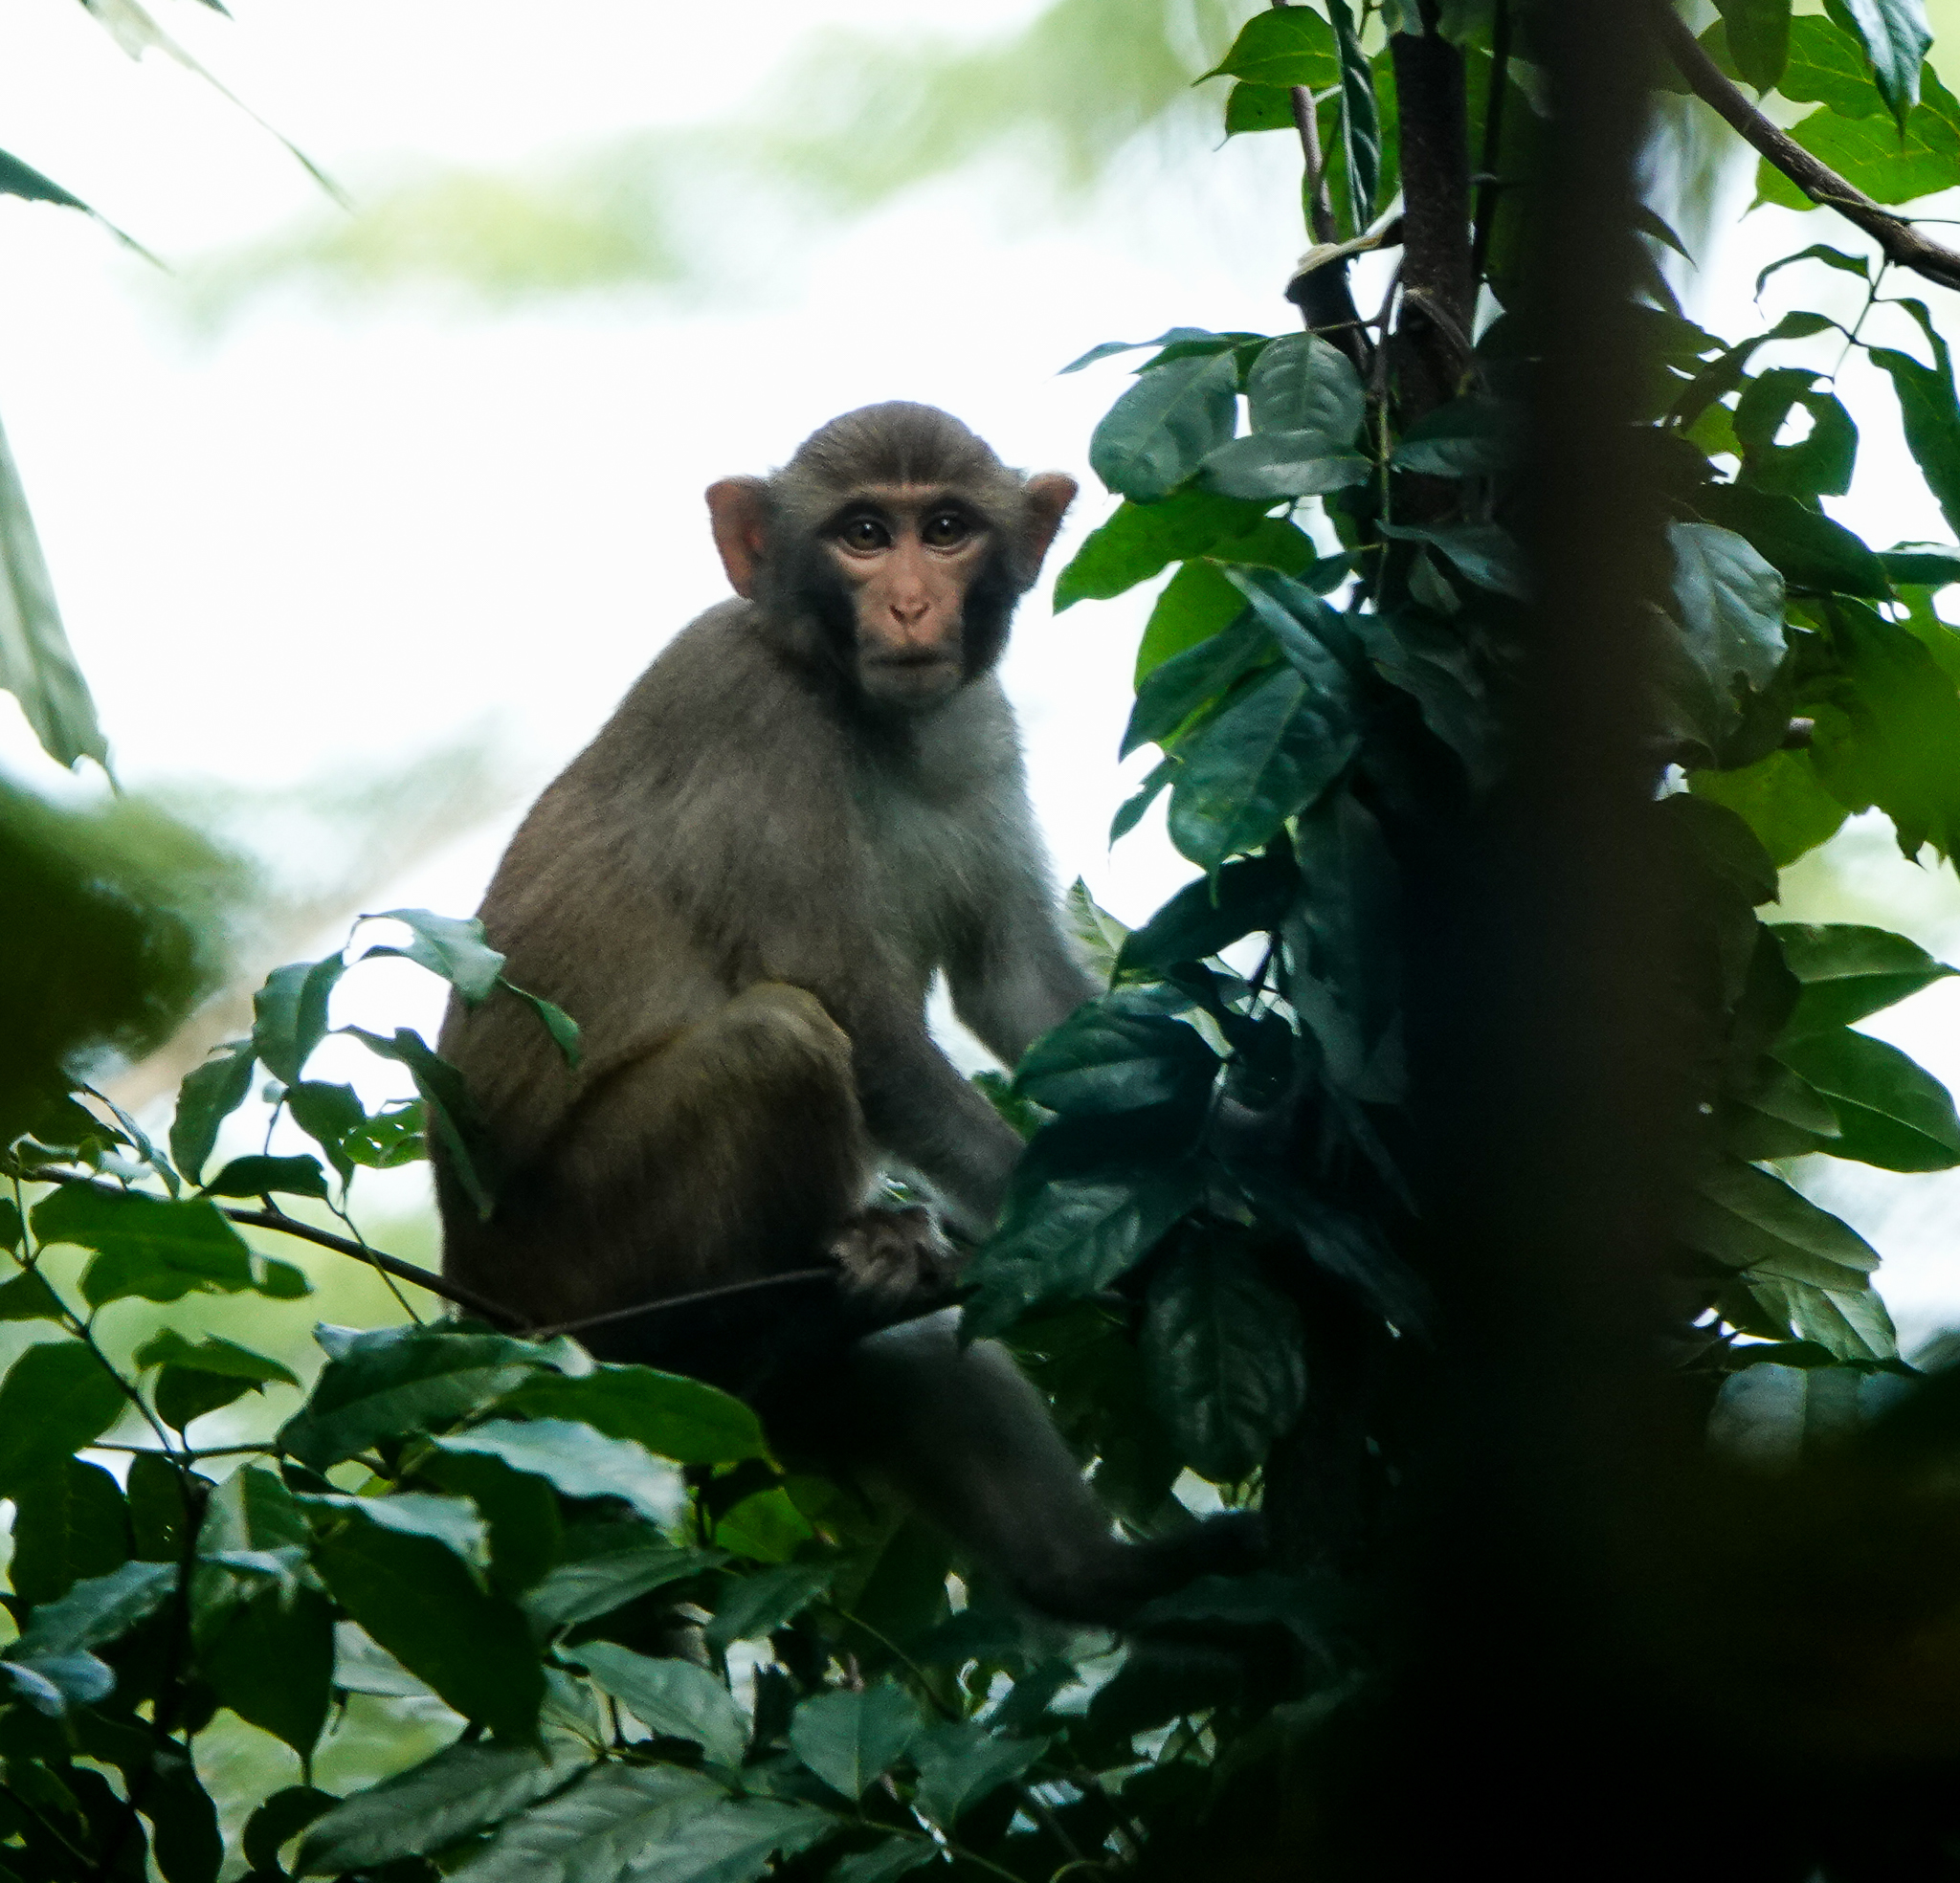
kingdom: Animalia
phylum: Chordata
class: Mammalia
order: Primates
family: Cercopithecidae
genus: Macaca
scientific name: Macaca mulatta
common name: Rhesus monkey
